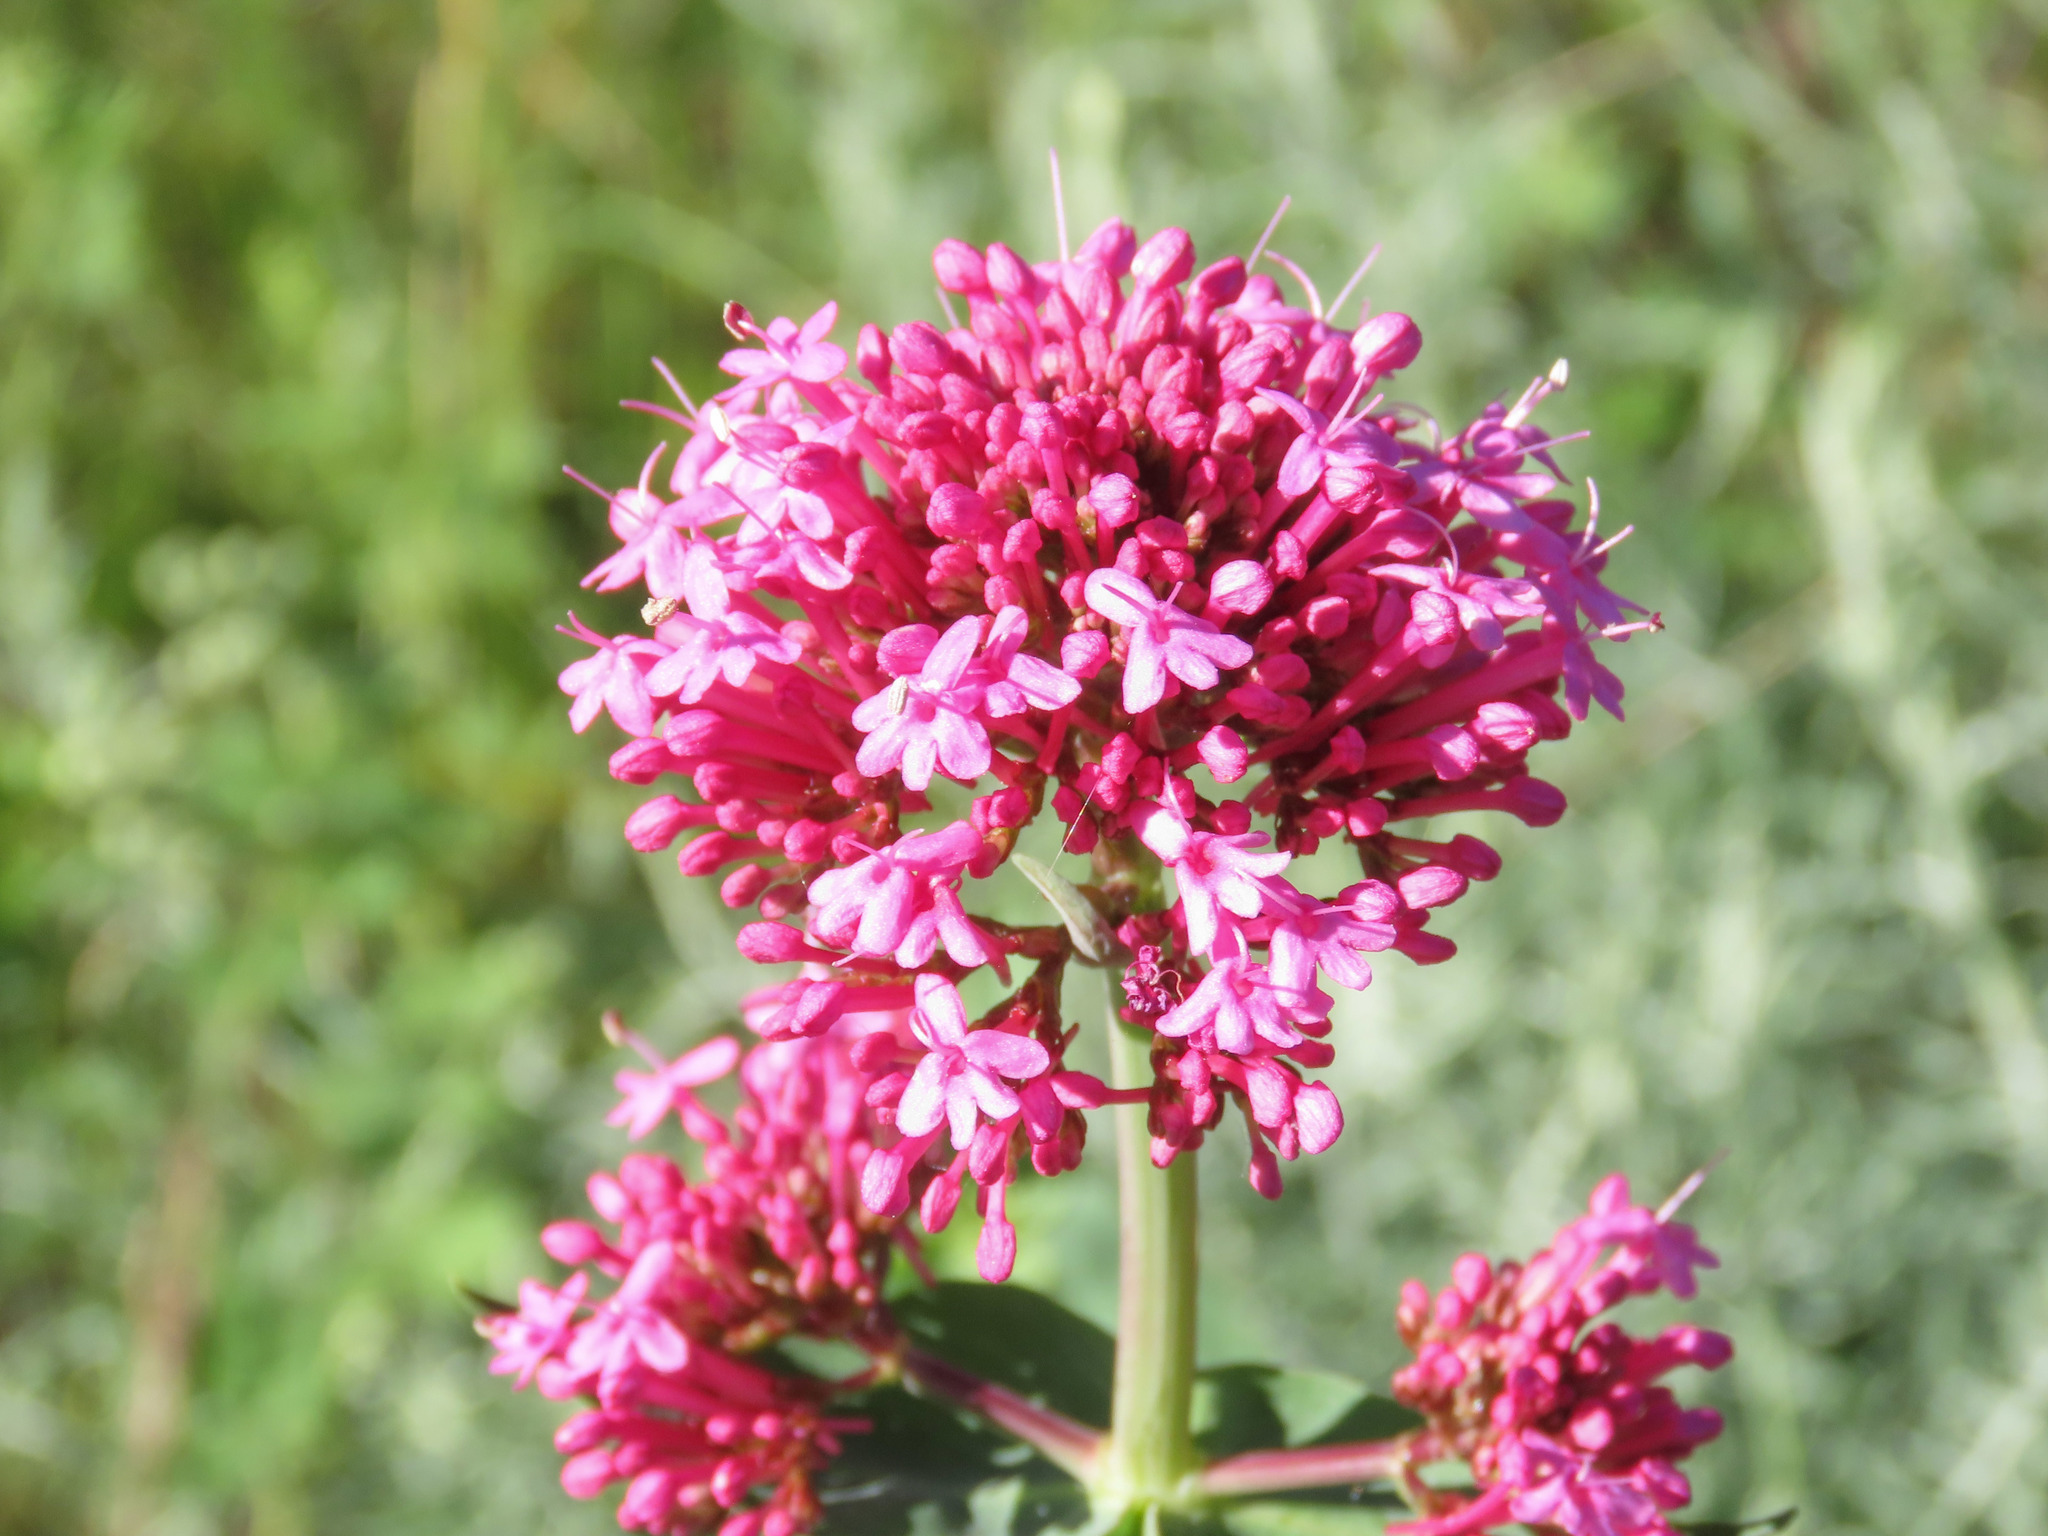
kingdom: Plantae
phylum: Tracheophyta
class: Magnoliopsida
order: Dipsacales
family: Caprifoliaceae
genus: Centranthus
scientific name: Centranthus ruber
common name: Red valerian
